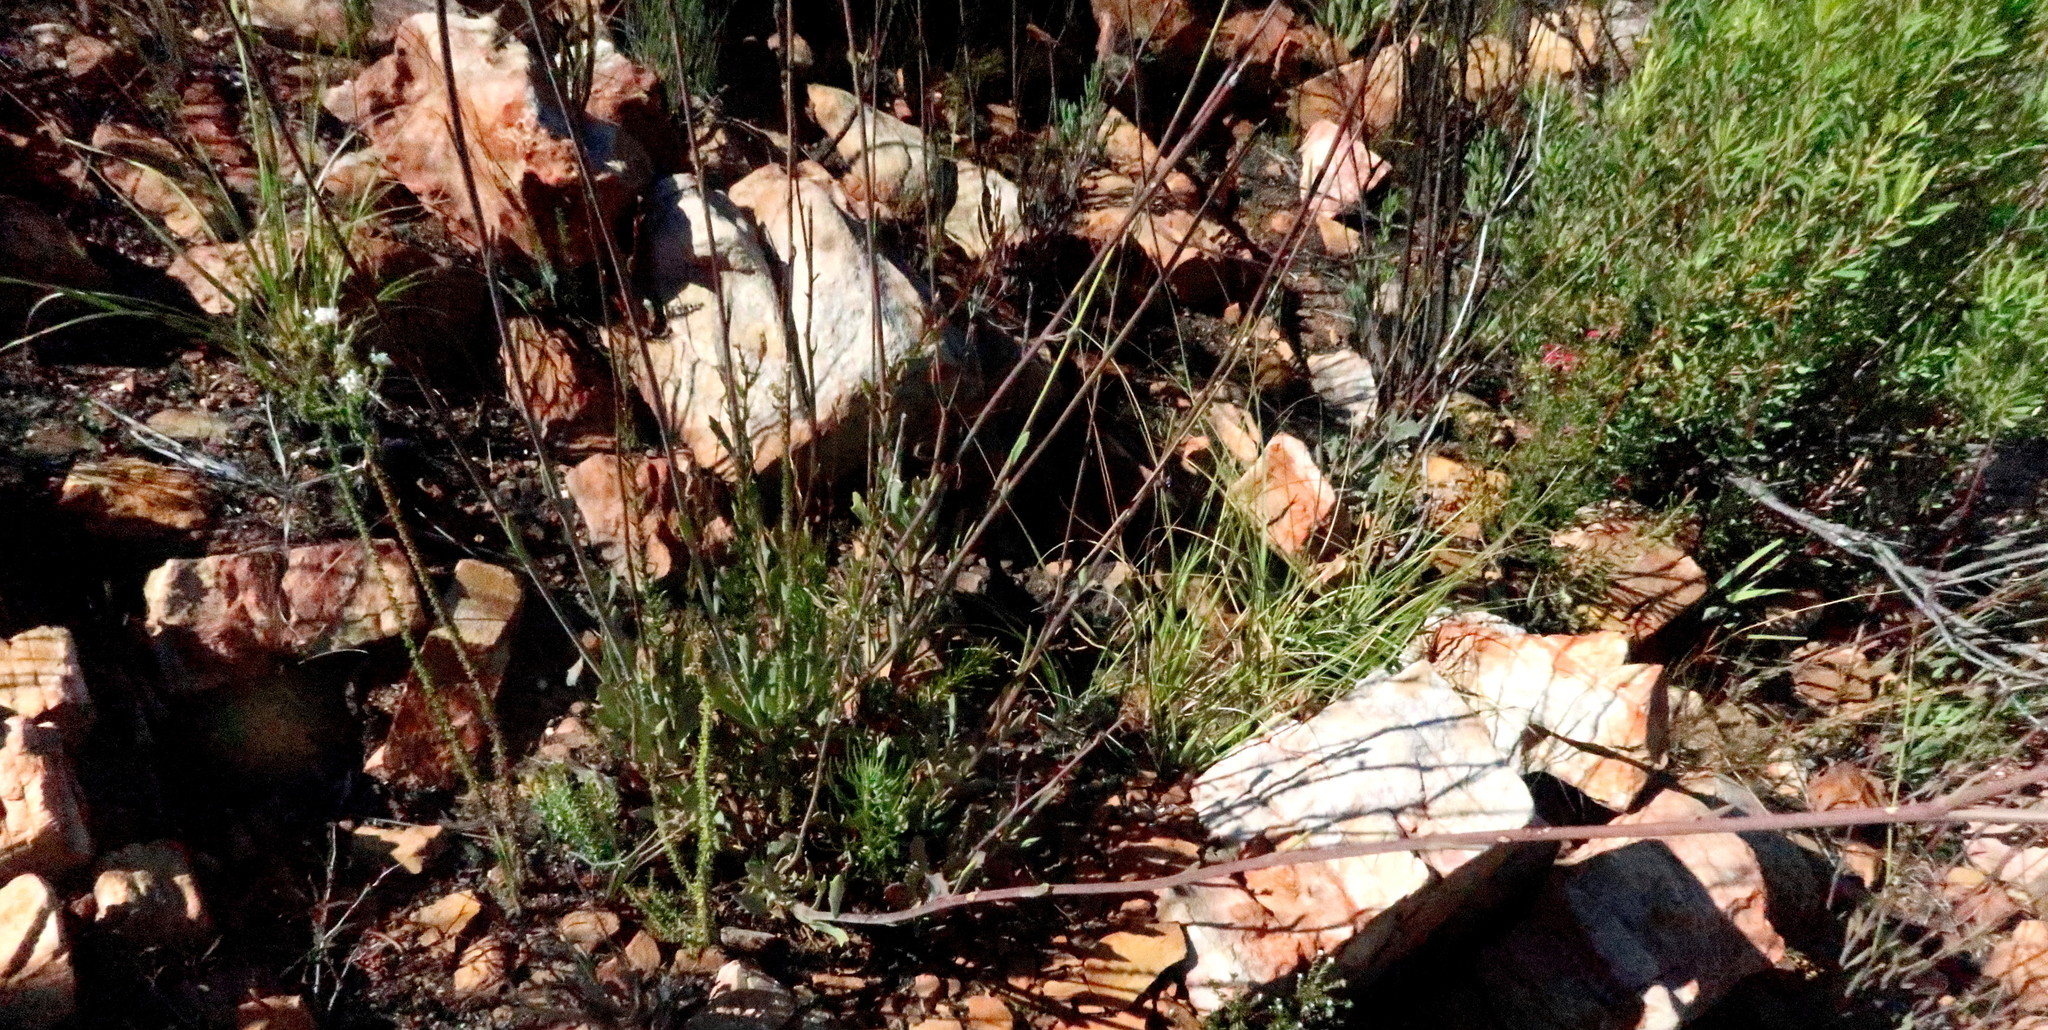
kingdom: Plantae
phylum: Tracheophyta
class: Magnoliopsida
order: Asterales
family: Asteraceae
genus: Othonna
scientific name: Othonna quinquedentata
